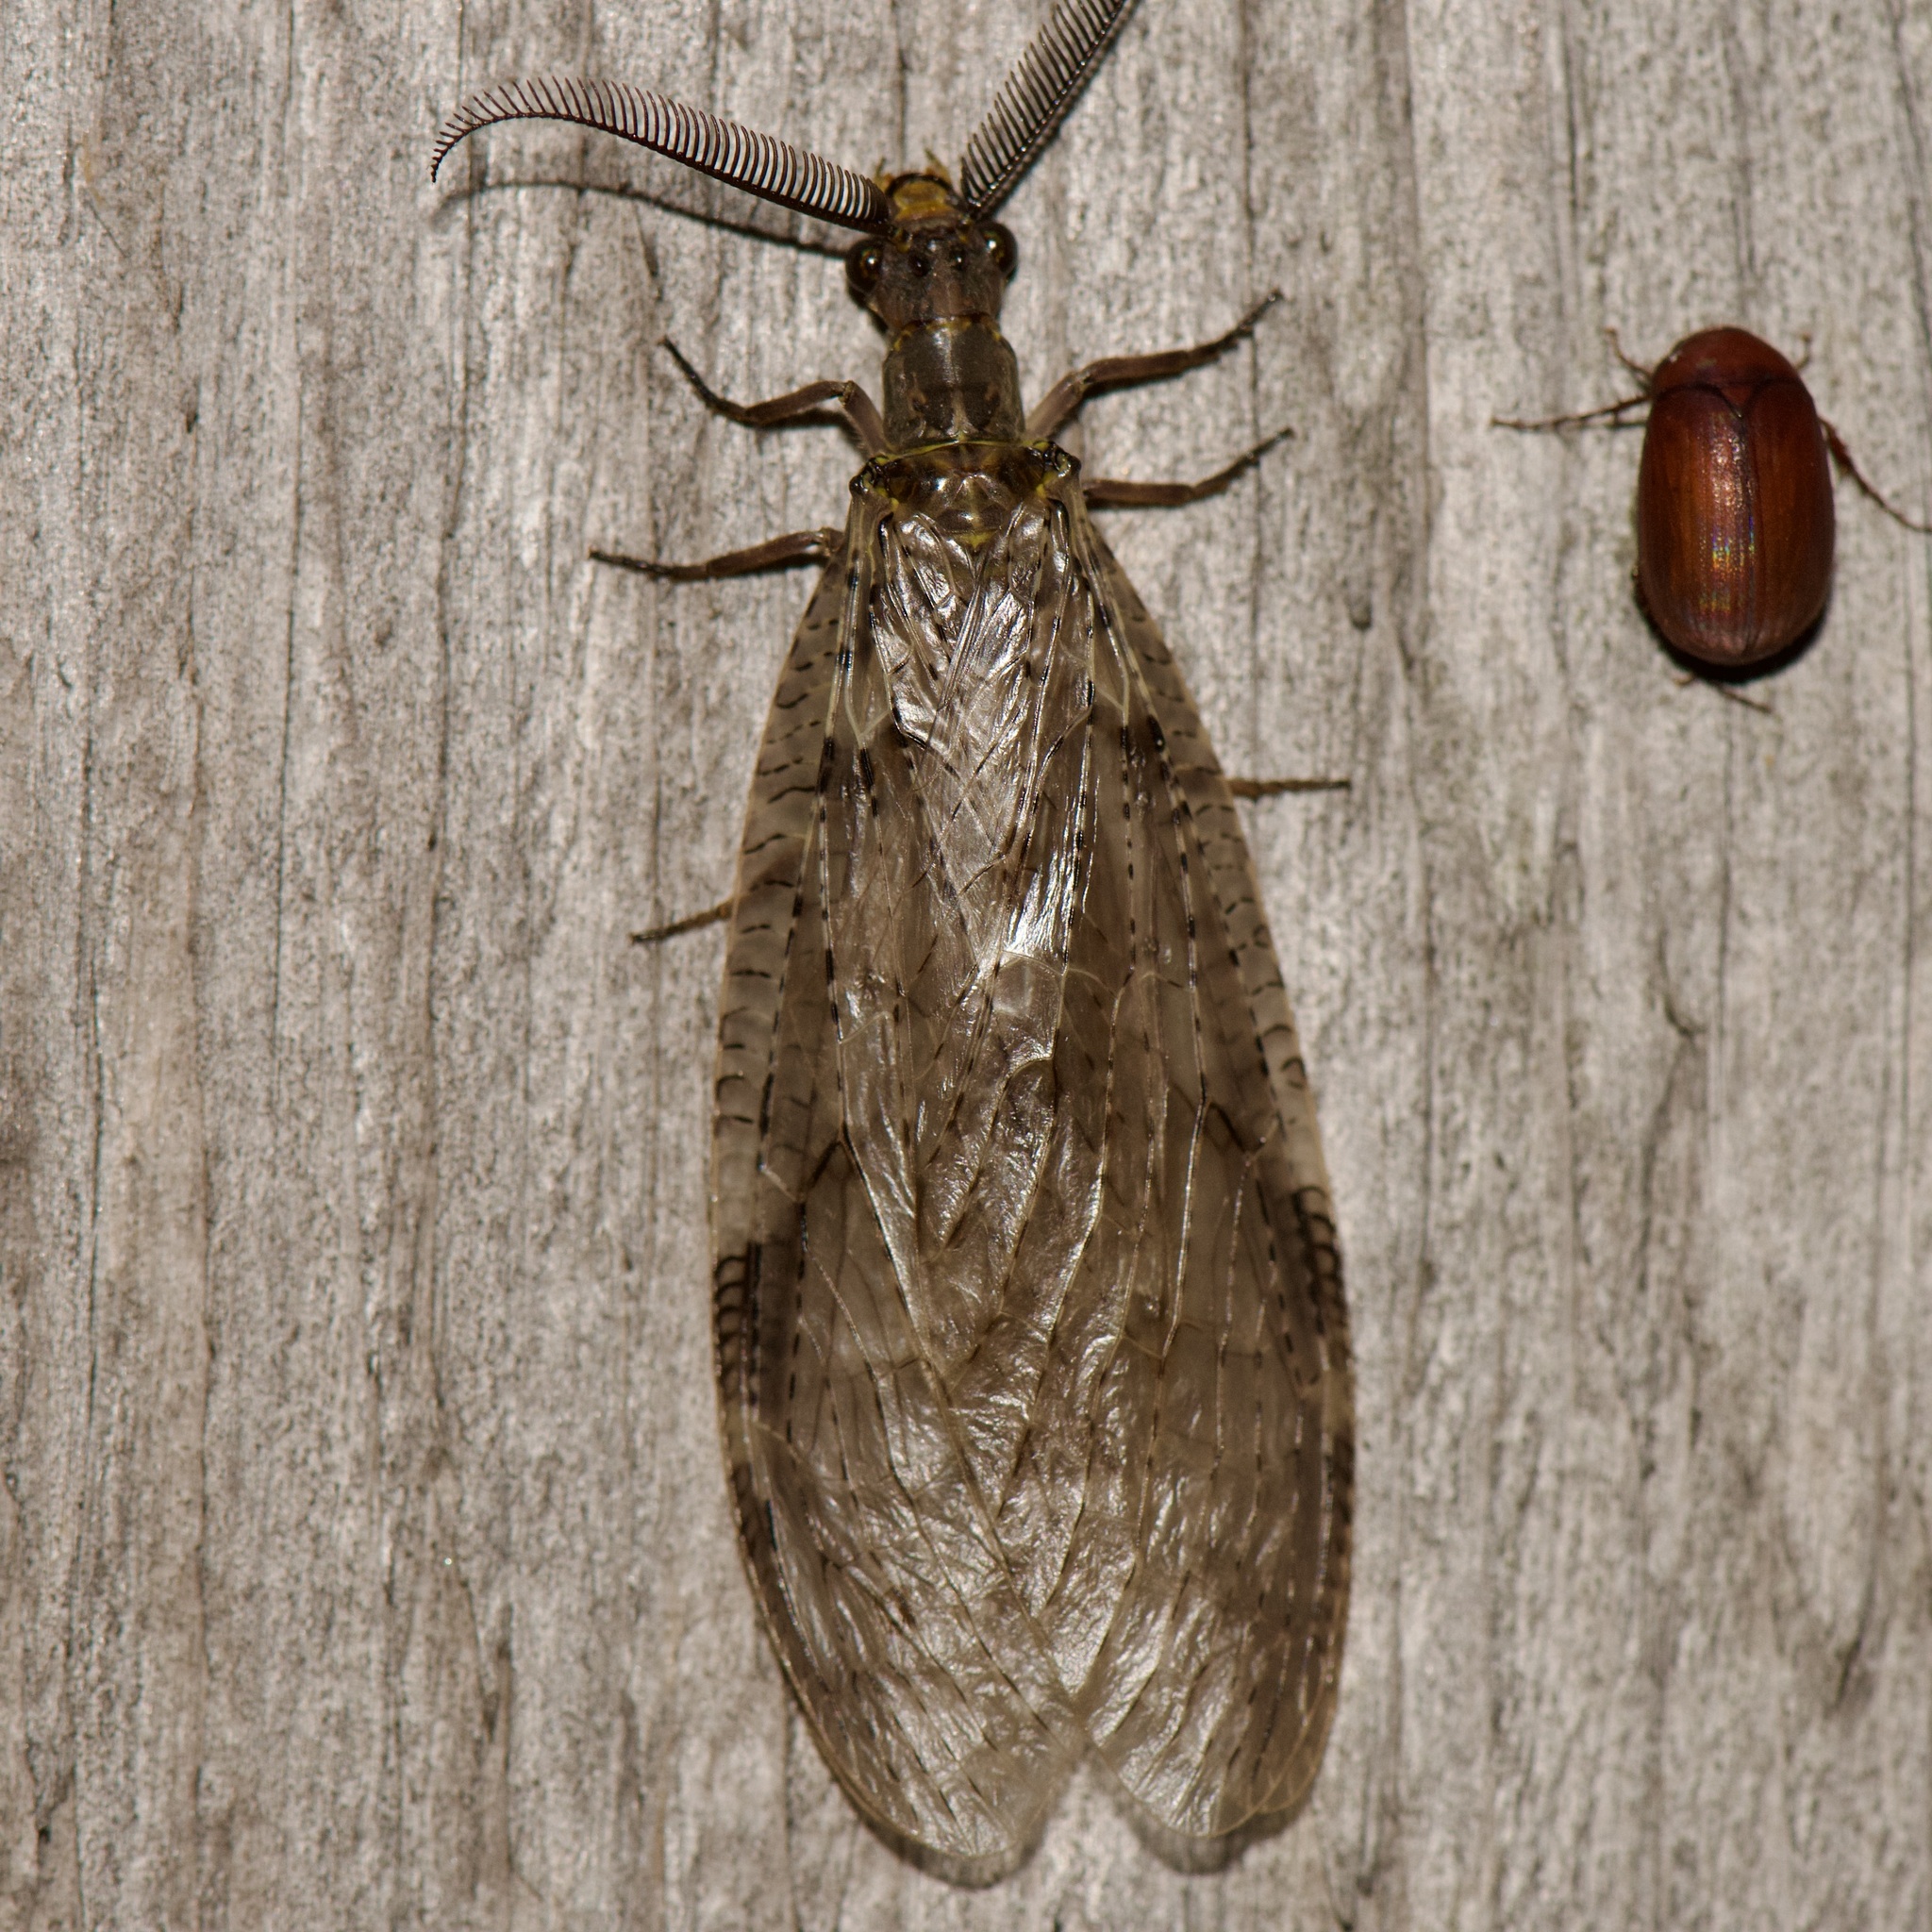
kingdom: Animalia
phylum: Arthropoda
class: Insecta
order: Megaloptera
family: Corydalidae
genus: Chauliodes
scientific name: Chauliodes pectinicornis
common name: Summer fishfly
